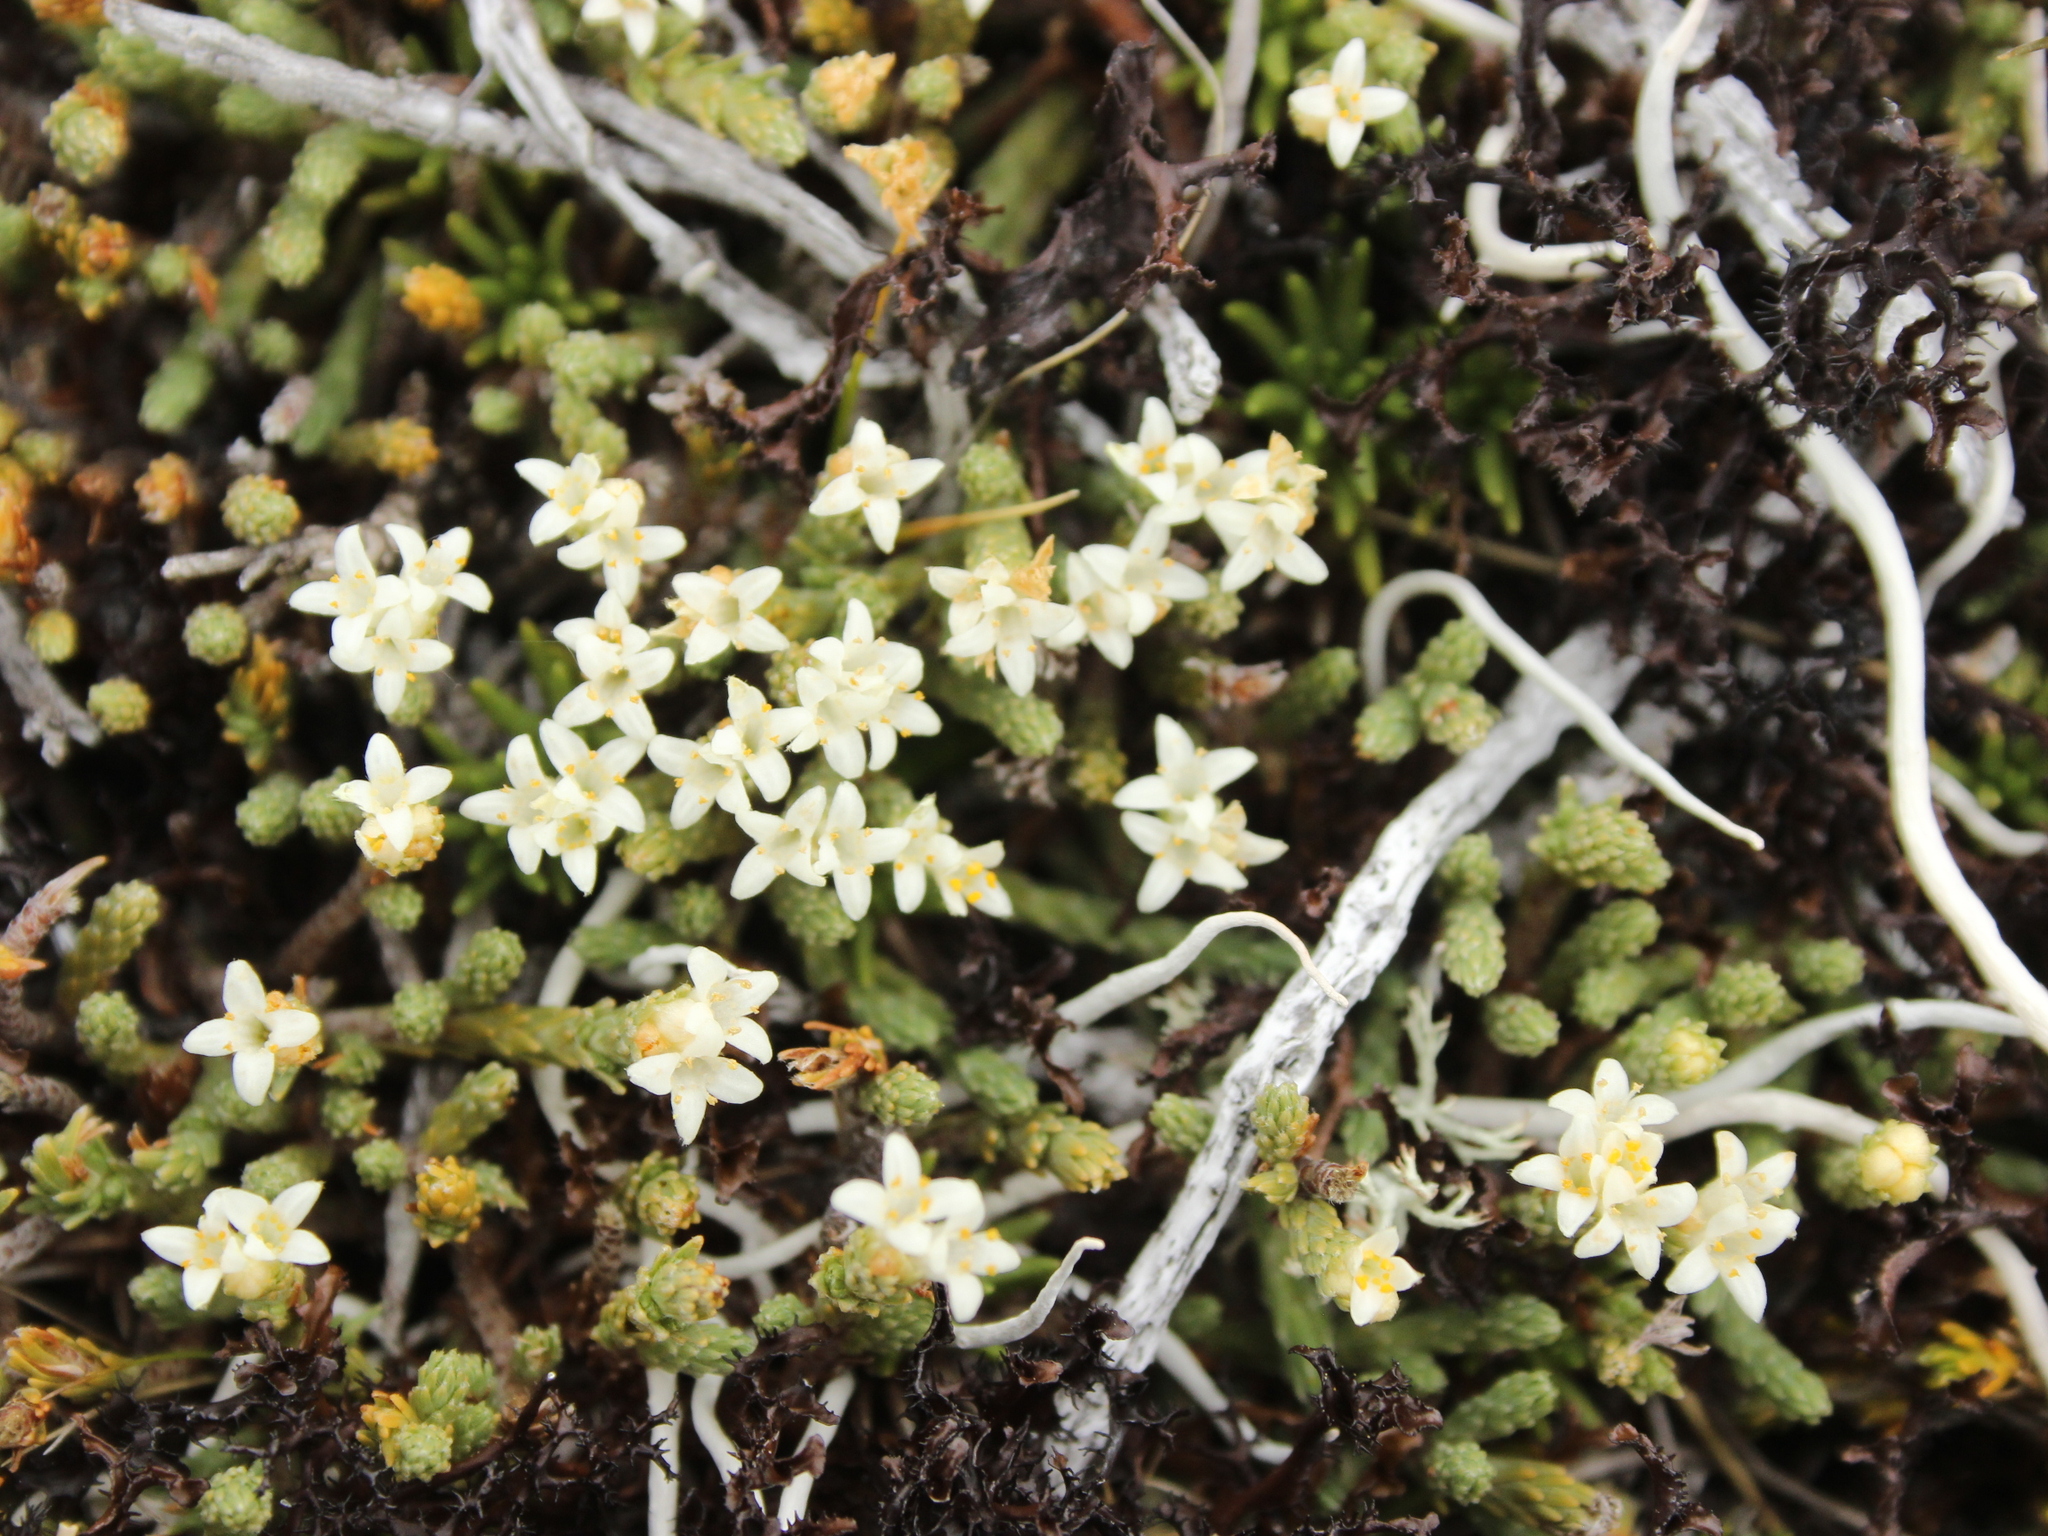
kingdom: Plantae
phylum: Tracheophyta
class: Magnoliopsida
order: Malvales
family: Thymelaeaceae
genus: Kelleria
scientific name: Kelleria villosa
